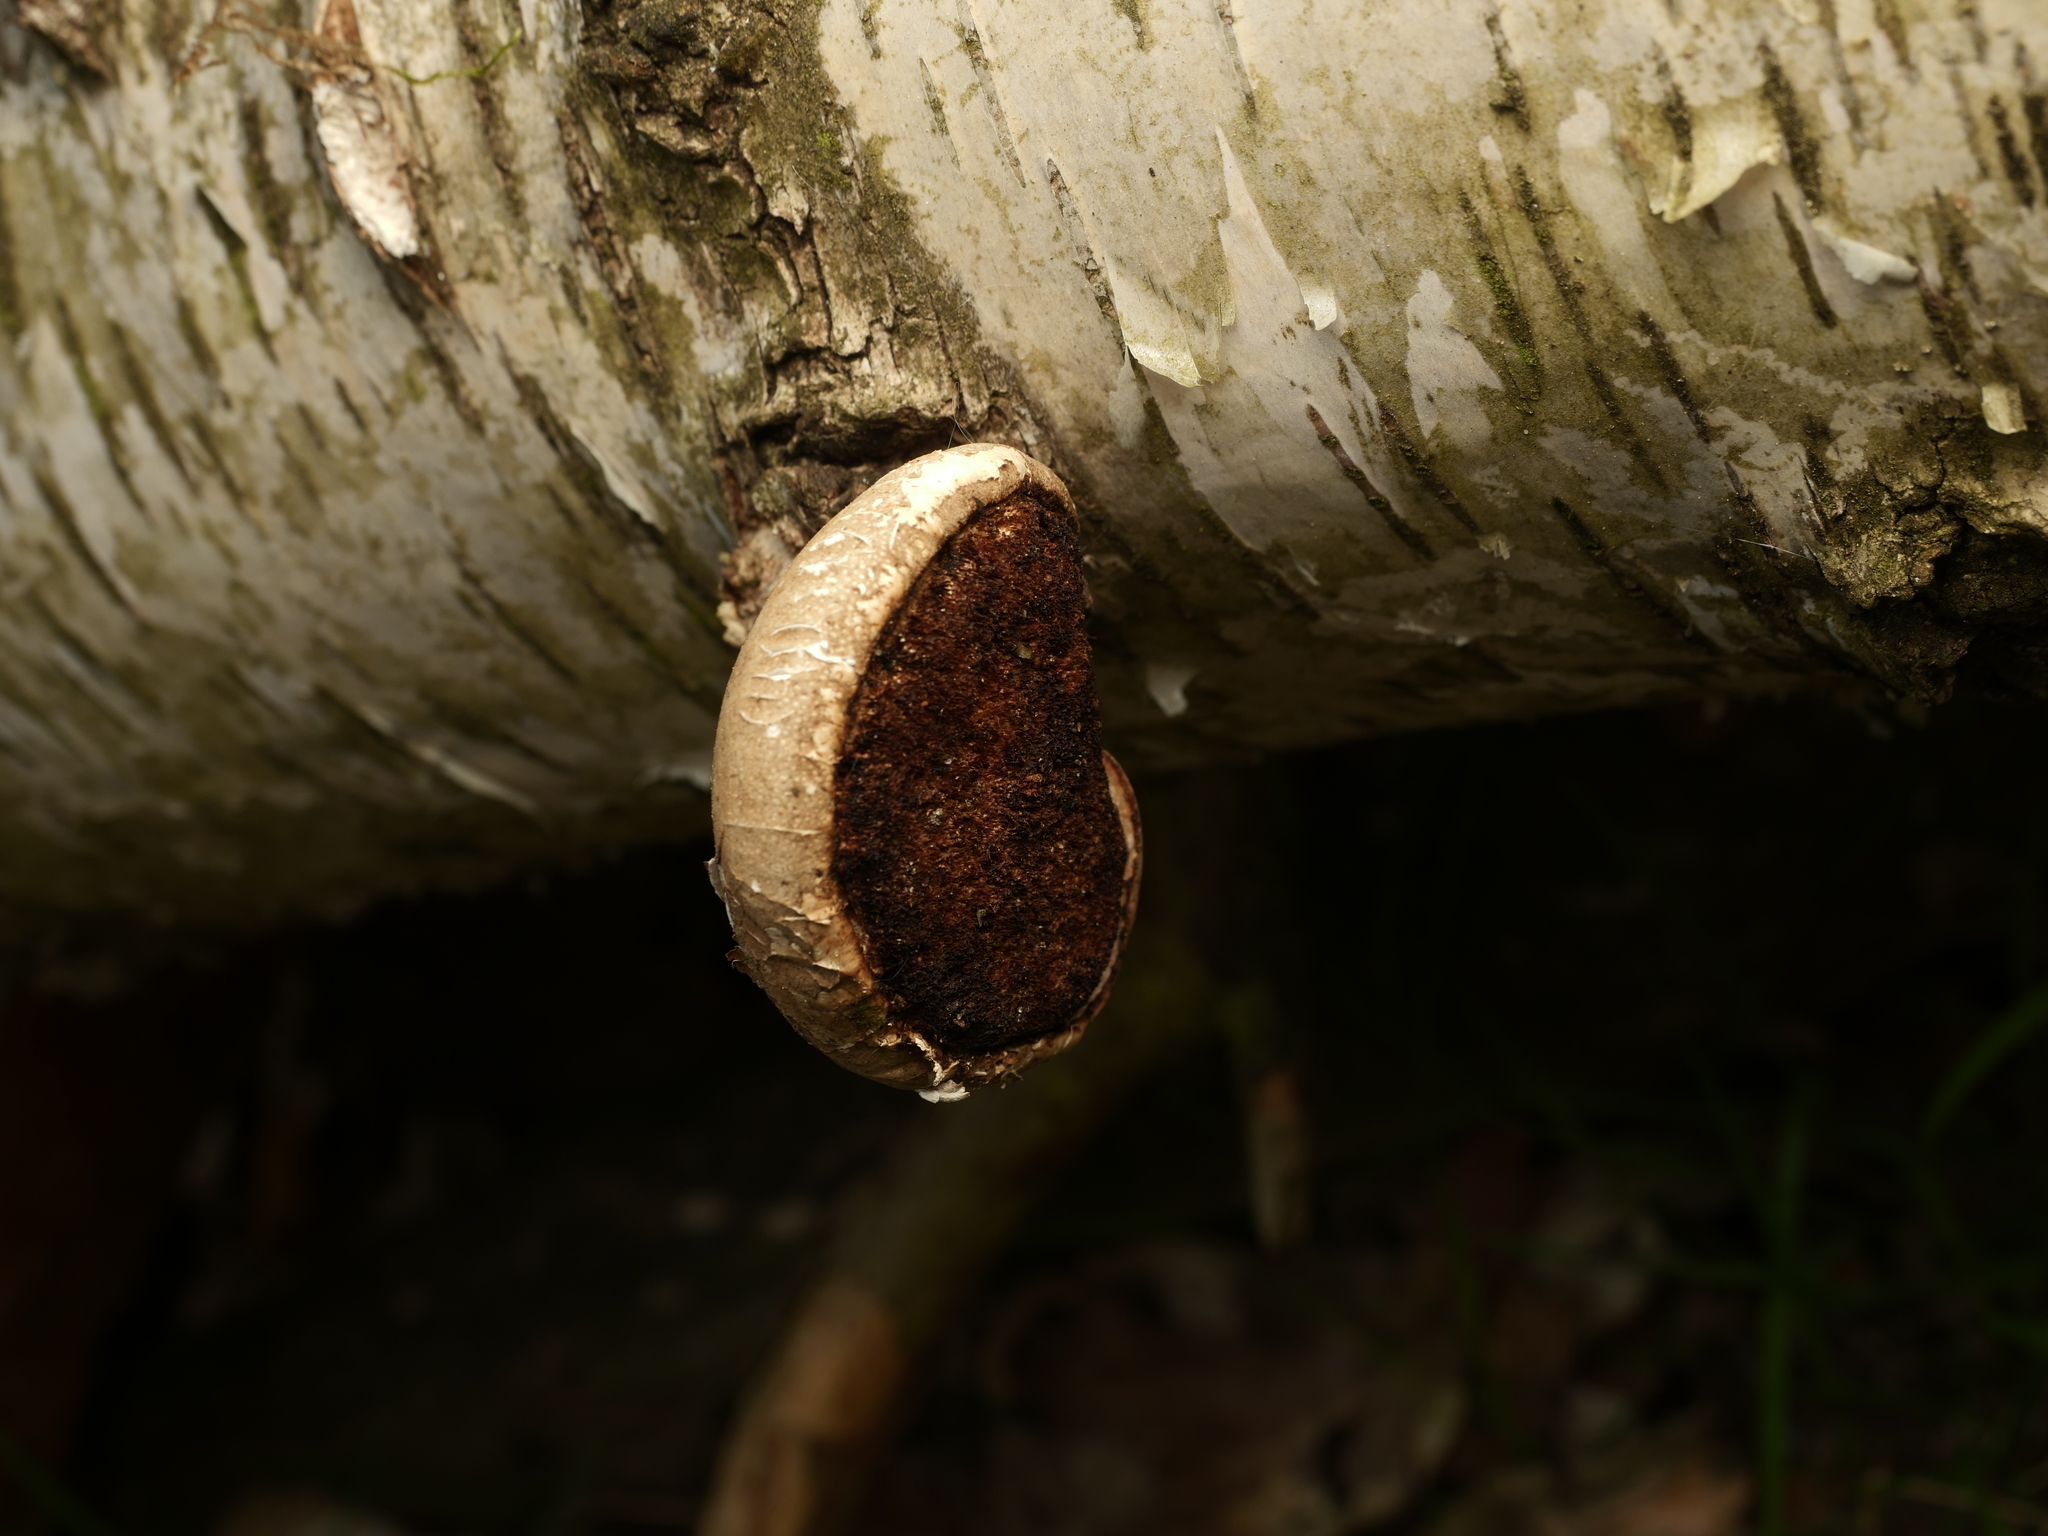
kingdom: Fungi
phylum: Basidiomycota
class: Agaricomycetes
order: Polyporales
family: Fomitopsidaceae
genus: Fomitopsis
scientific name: Fomitopsis betulina
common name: Birch polypore
